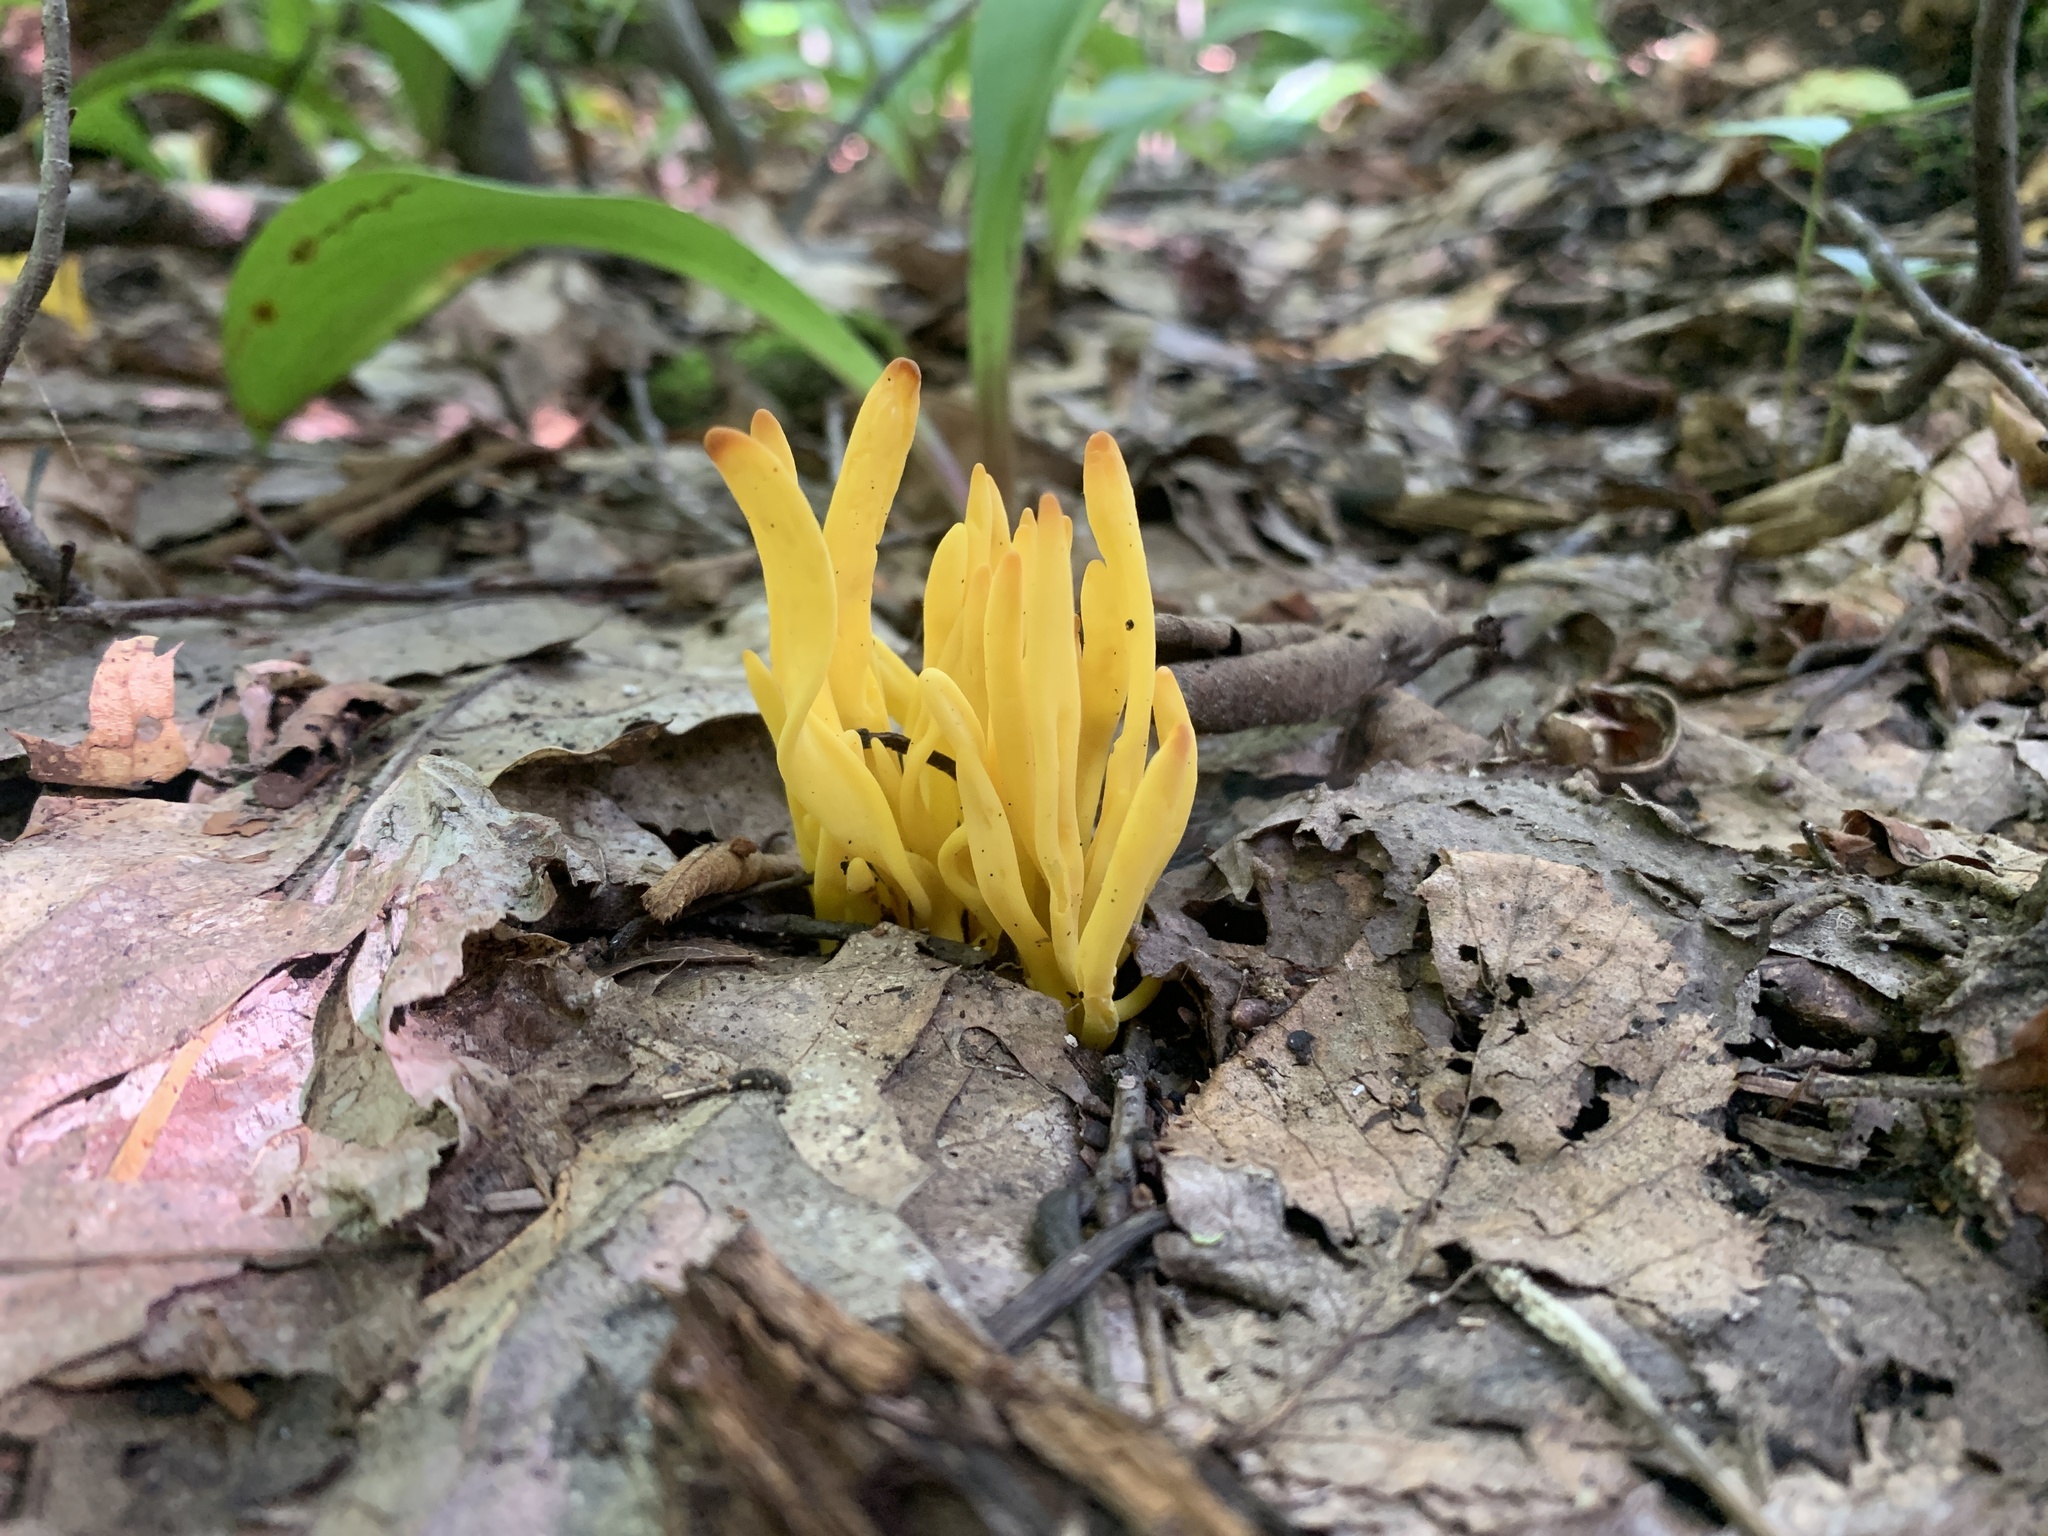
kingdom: Fungi
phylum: Basidiomycota
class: Agaricomycetes
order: Agaricales
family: Clavariaceae
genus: Clavulinopsis
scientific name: Clavulinopsis fusiformis
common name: Golden spindles
